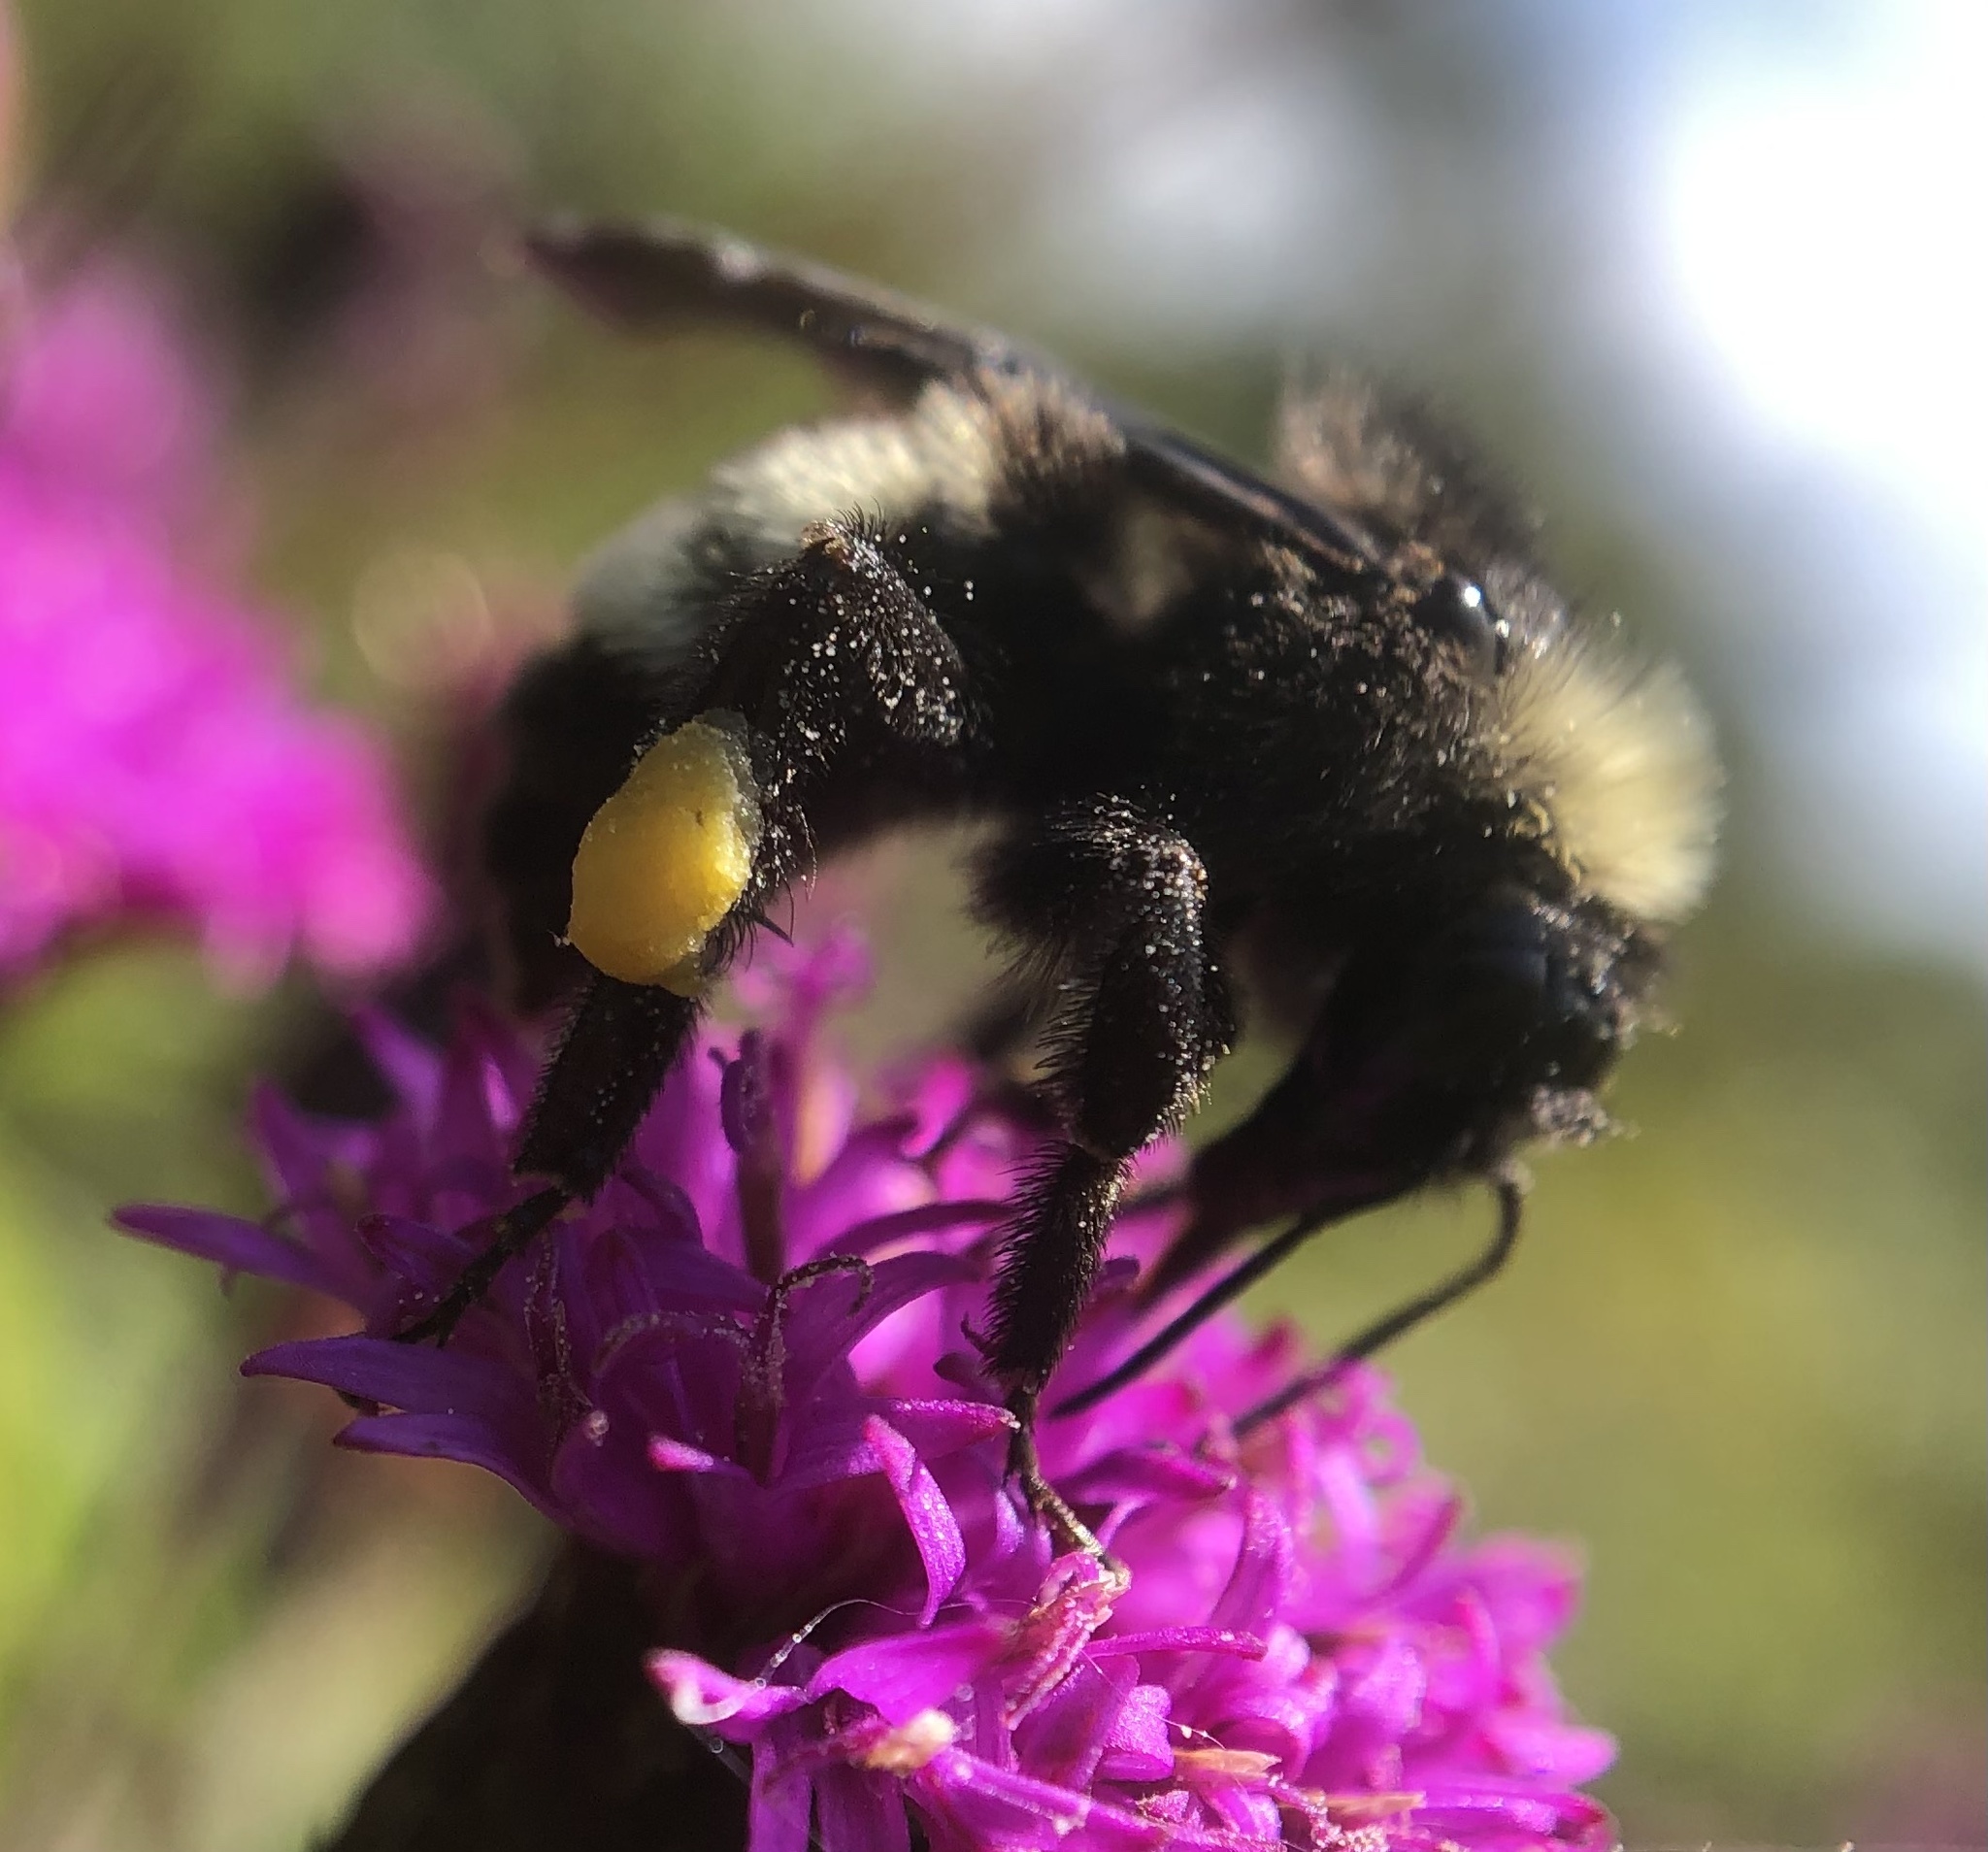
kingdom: Animalia
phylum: Arthropoda
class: Insecta
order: Hymenoptera
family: Apidae
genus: Bombus
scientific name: Bombus pensylvanicus
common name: Bumble bee
